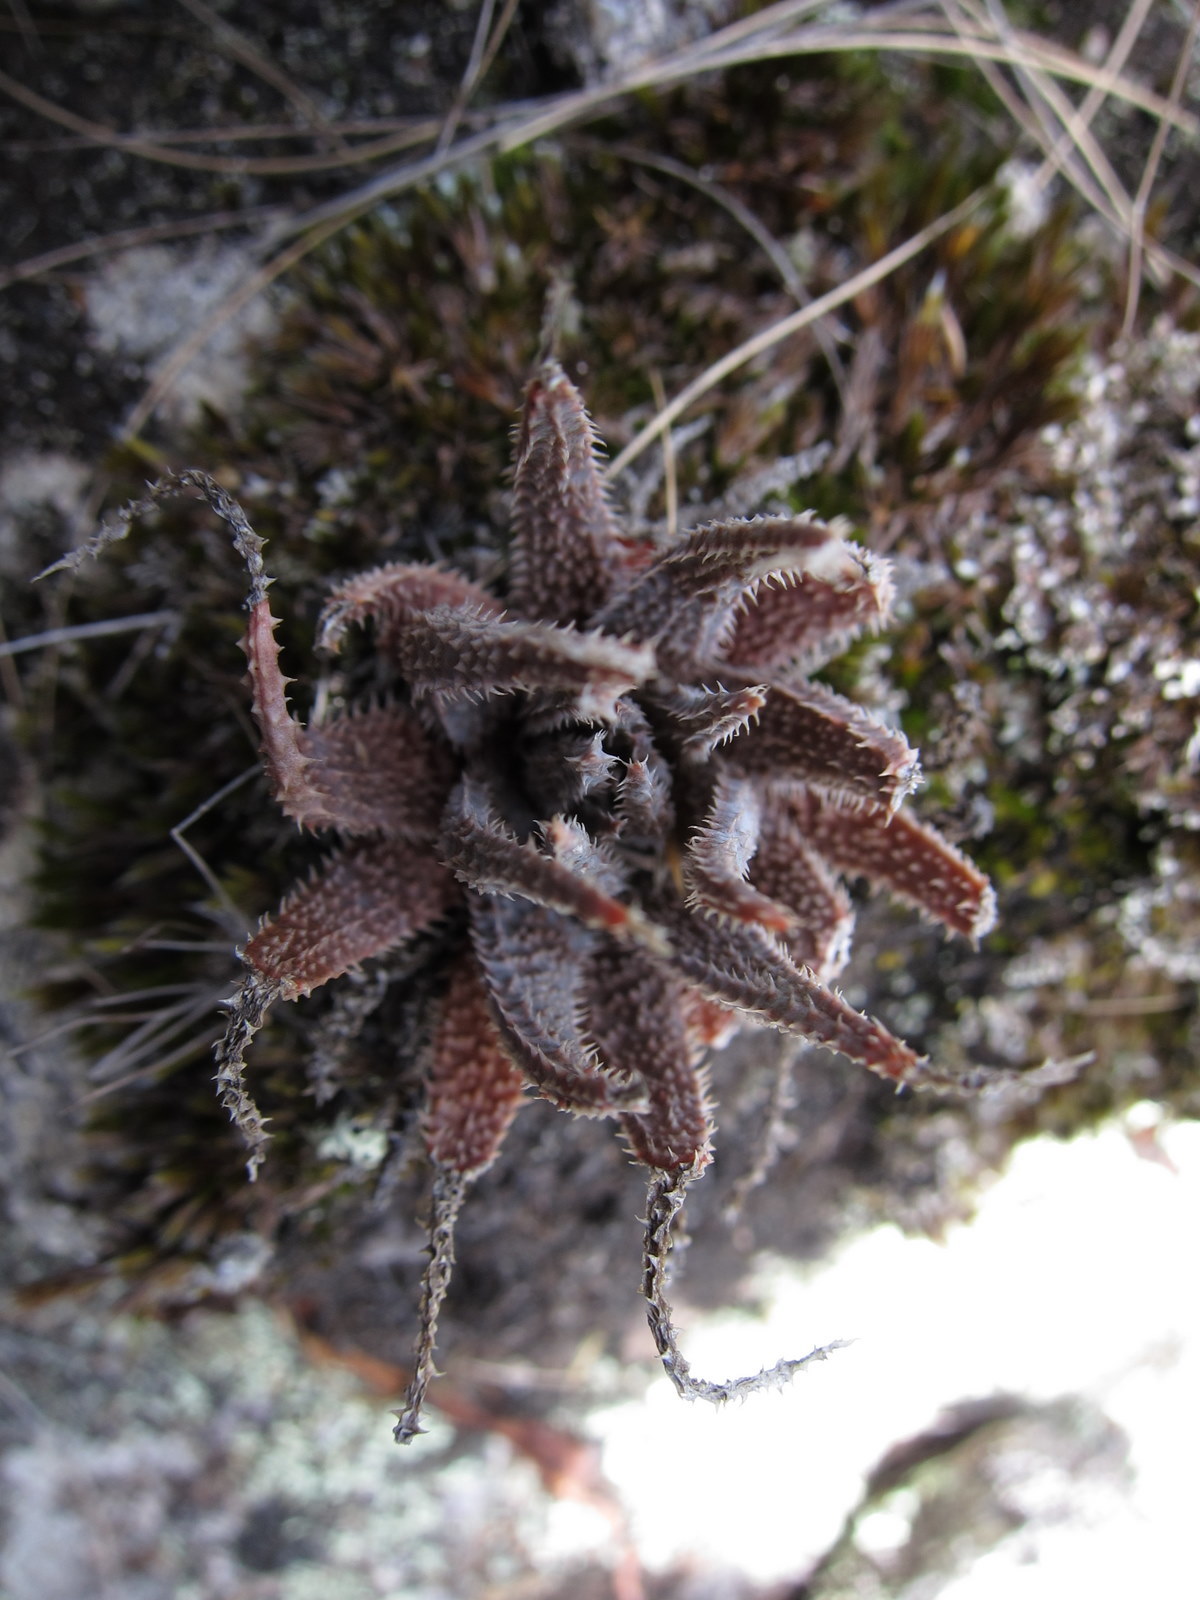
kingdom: Plantae
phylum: Tracheophyta
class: Liliopsida
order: Asparagales
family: Asphodelaceae
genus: Aloe
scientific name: Aloe parvula
